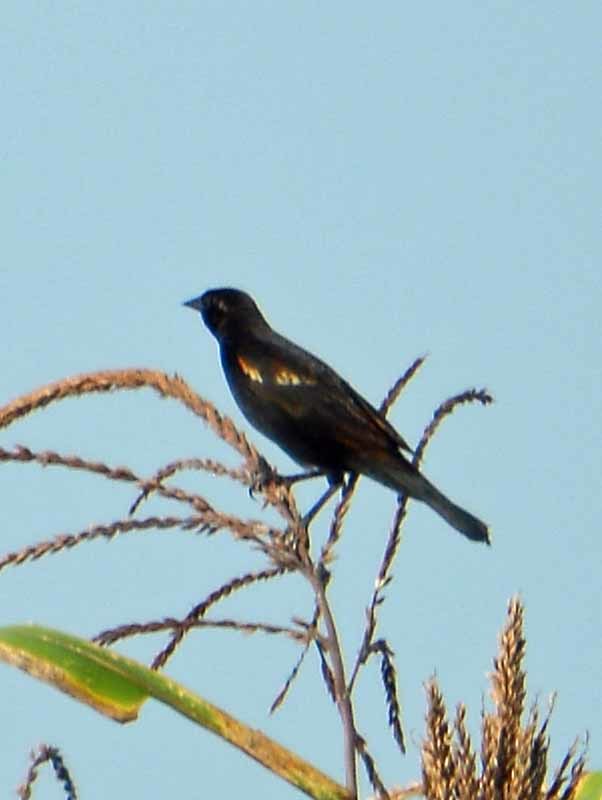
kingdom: Animalia
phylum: Chordata
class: Aves
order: Passeriformes
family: Icteridae
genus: Agelaius
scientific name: Agelaius phoeniceus
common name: Red-winged blackbird
